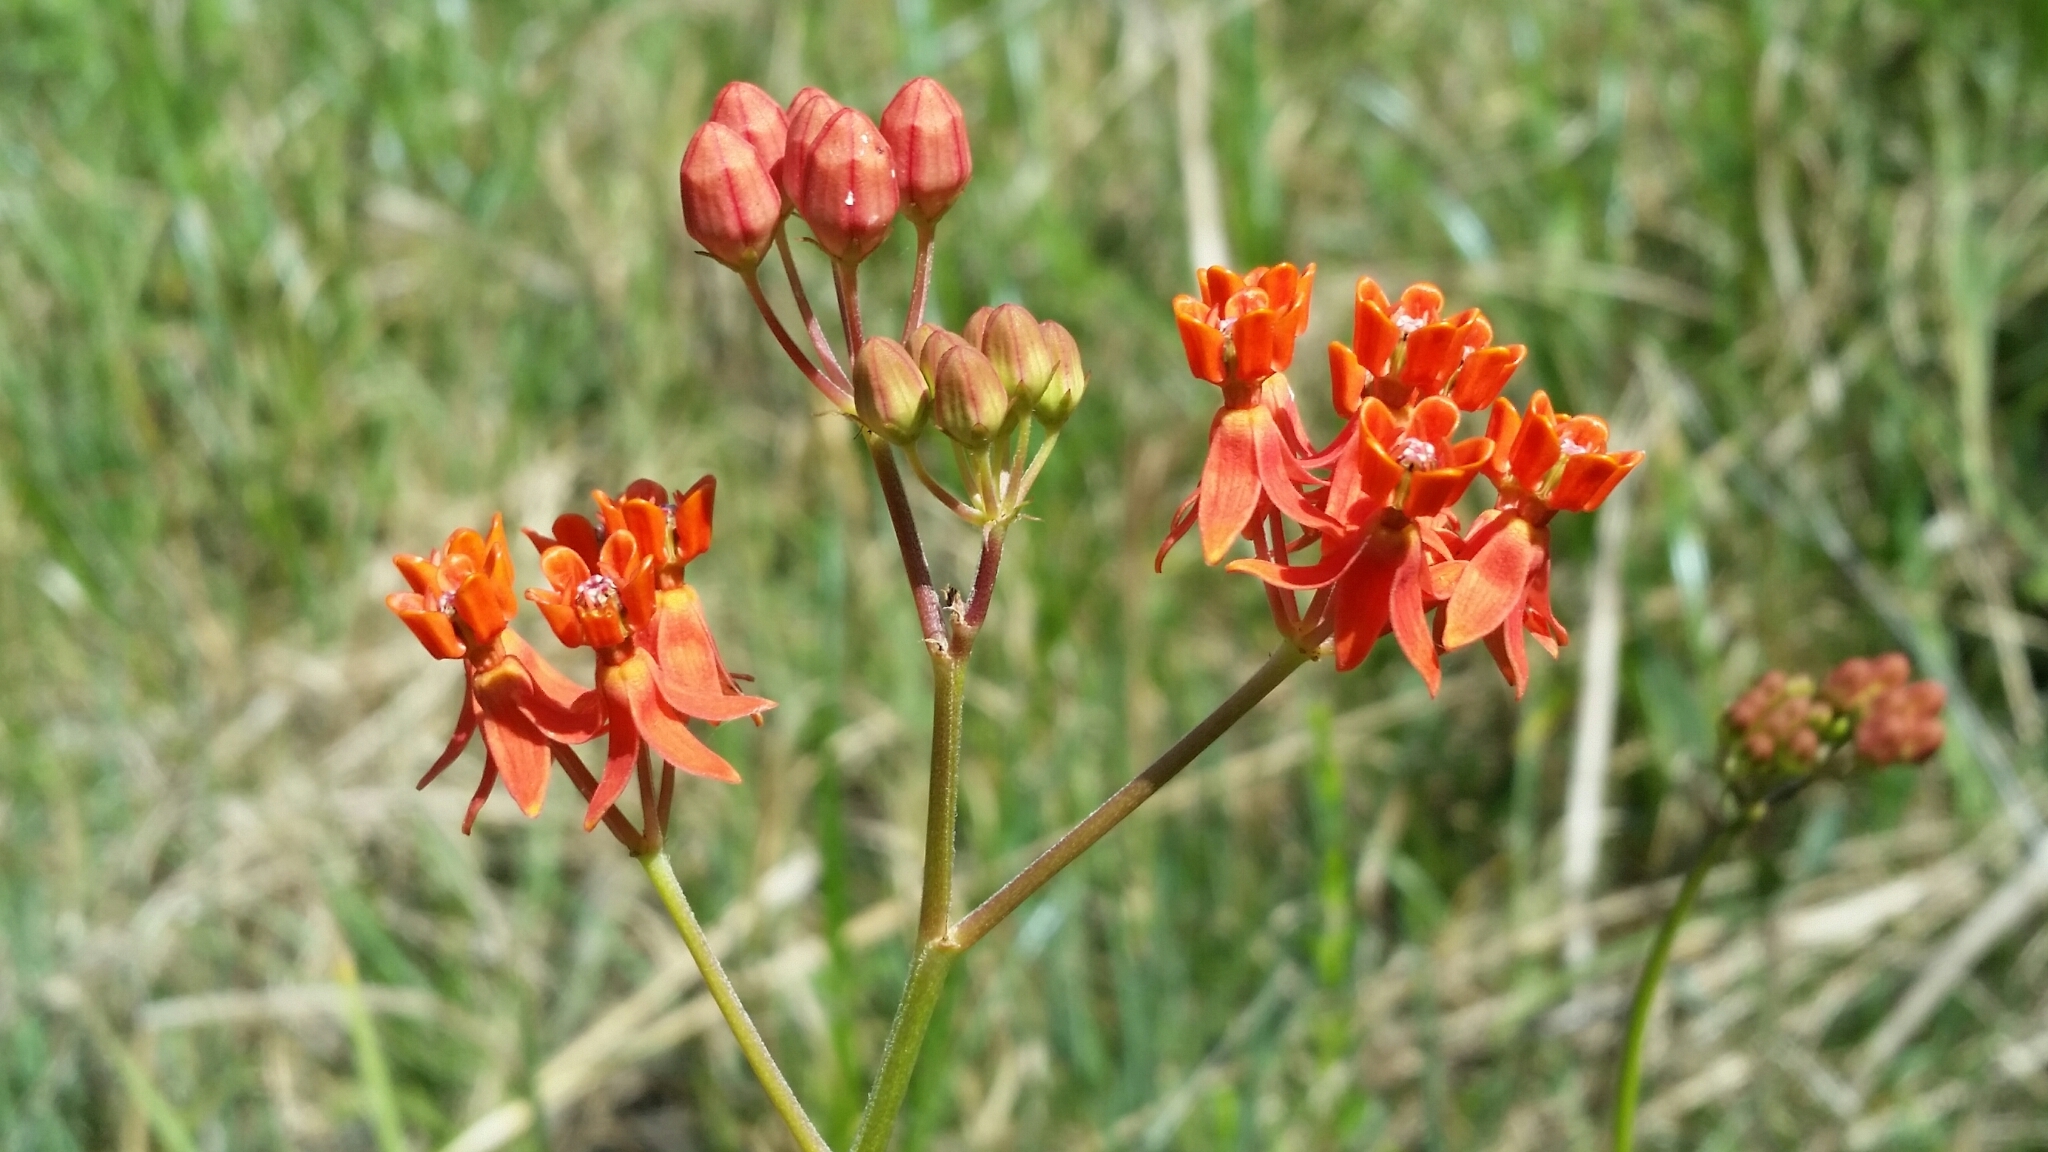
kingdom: Plantae
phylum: Tracheophyta
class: Magnoliopsida
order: Gentianales
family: Apocynaceae
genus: Asclepias
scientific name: Asclepias lanceolata
